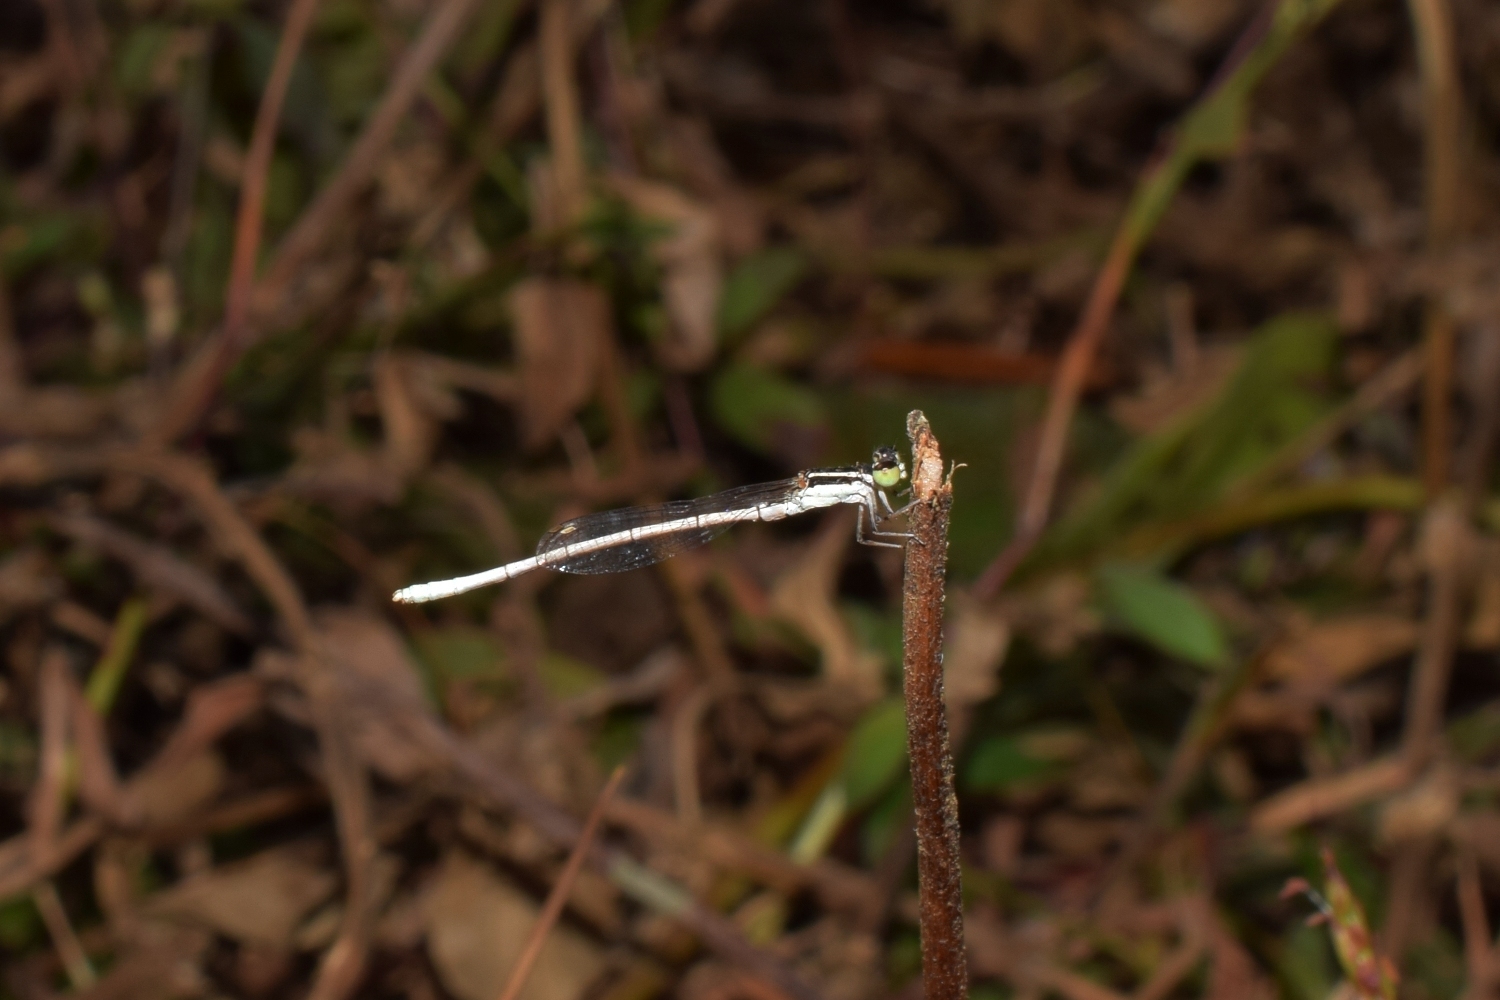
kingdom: Animalia
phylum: Arthropoda
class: Insecta
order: Odonata
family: Coenagrionidae
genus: Agriocnemis
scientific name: Agriocnemis lacteola
